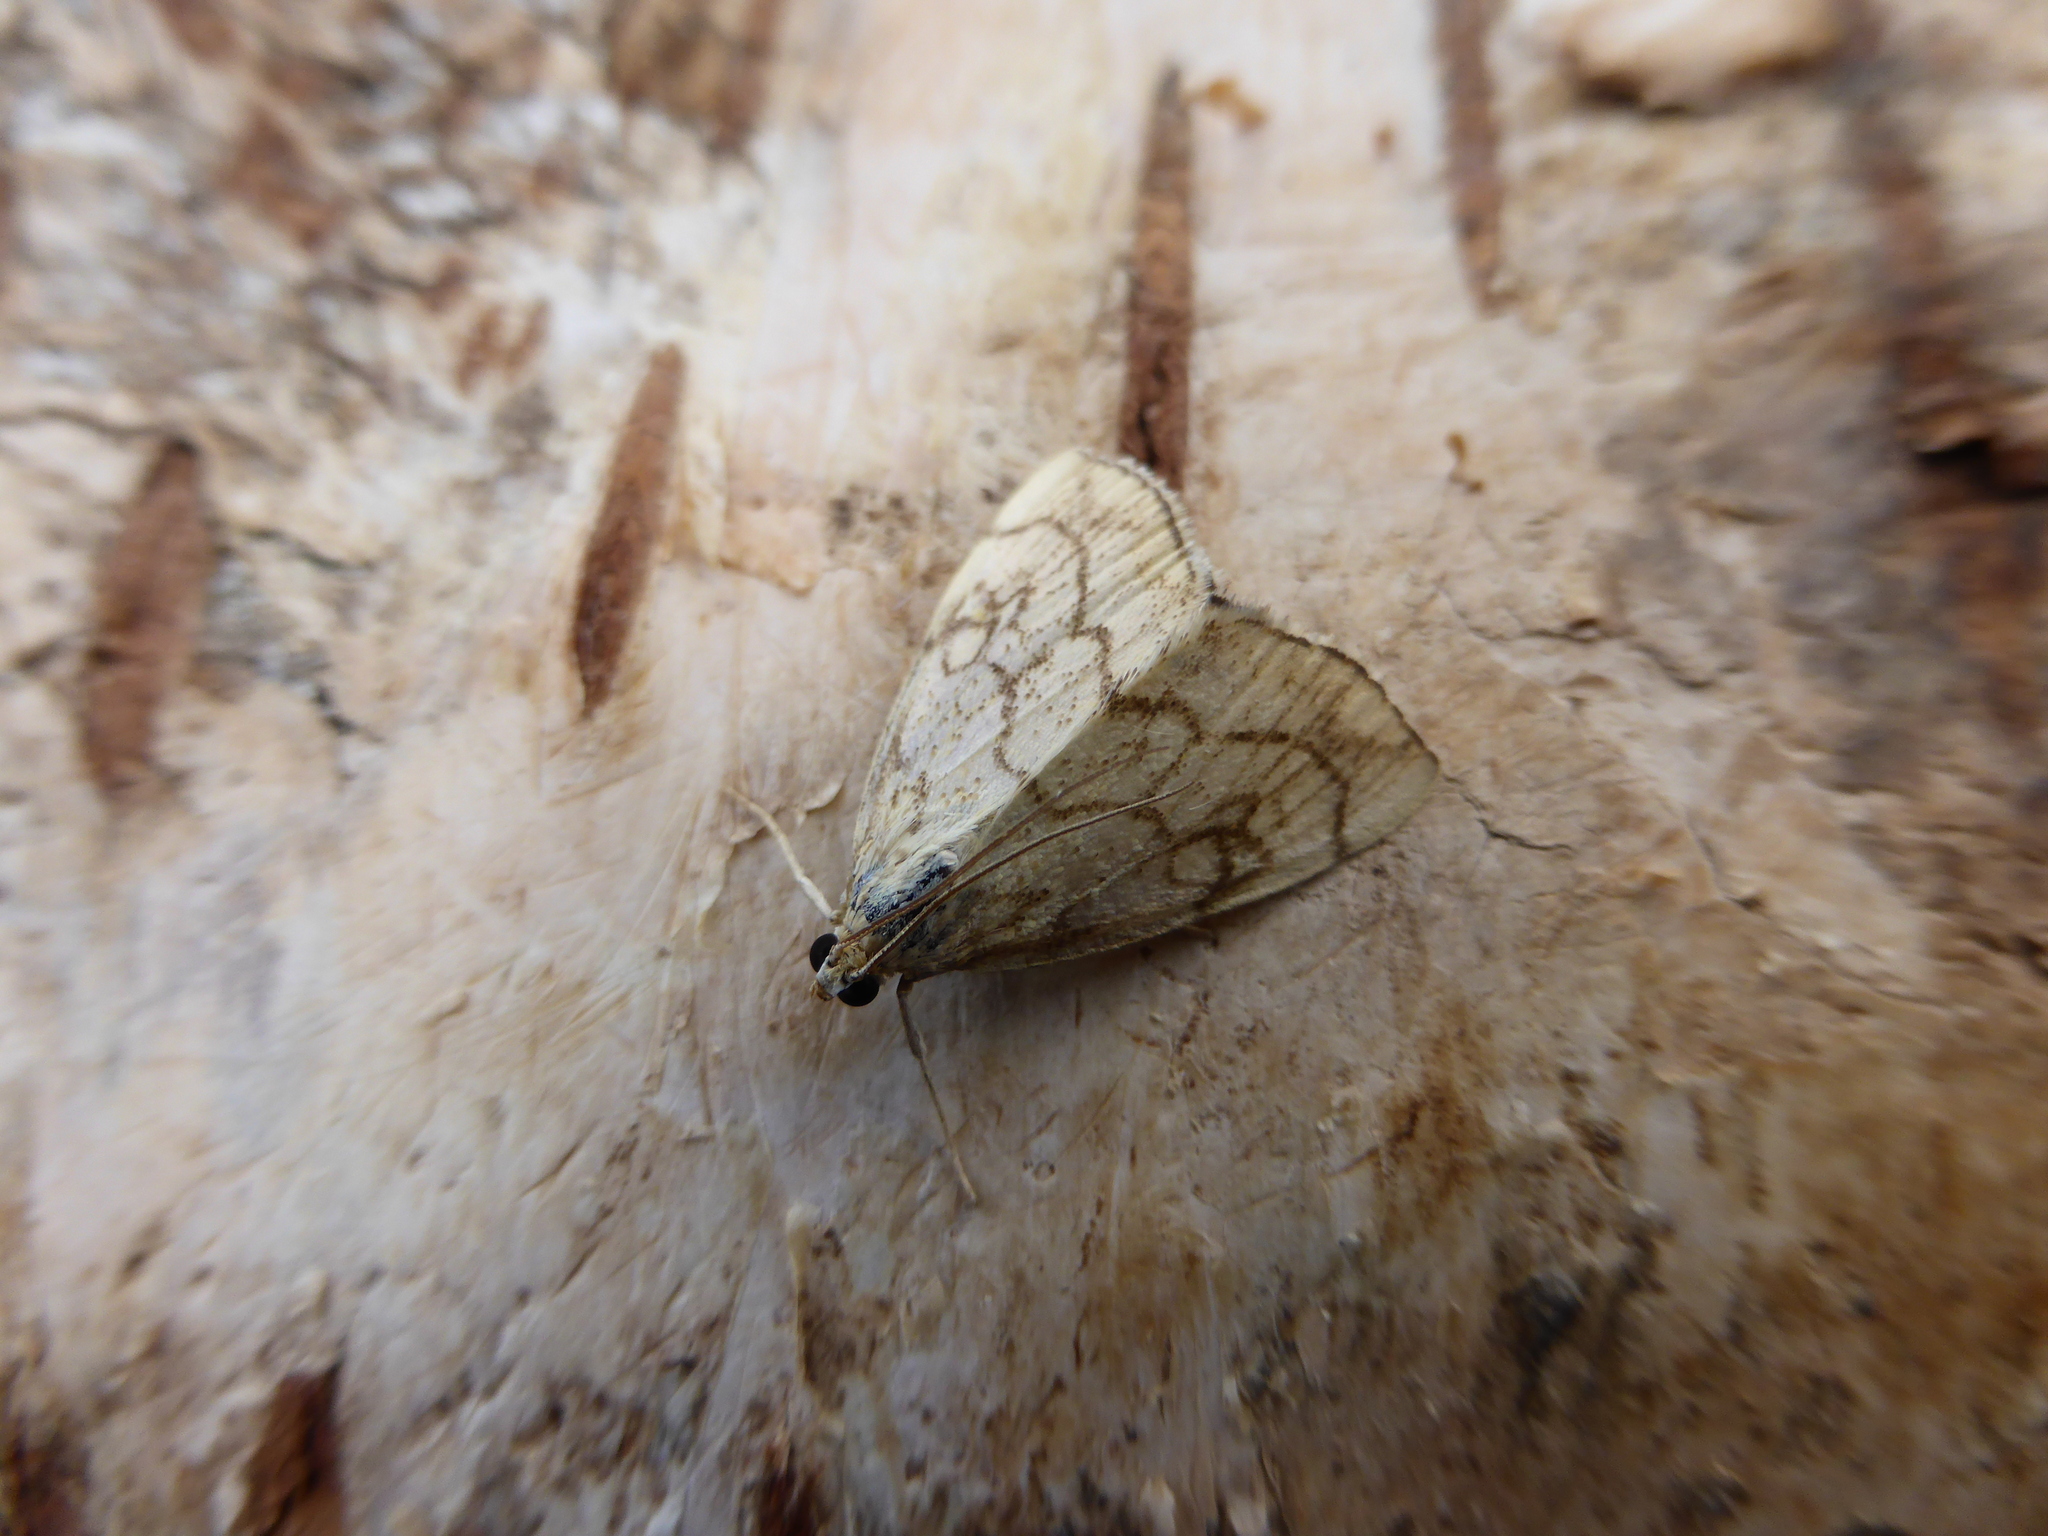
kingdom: Animalia
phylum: Arthropoda
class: Insecta
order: Lepidoptera
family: Crambidae
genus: Evergestis
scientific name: Evergestis pallidata
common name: Chequered pearl
